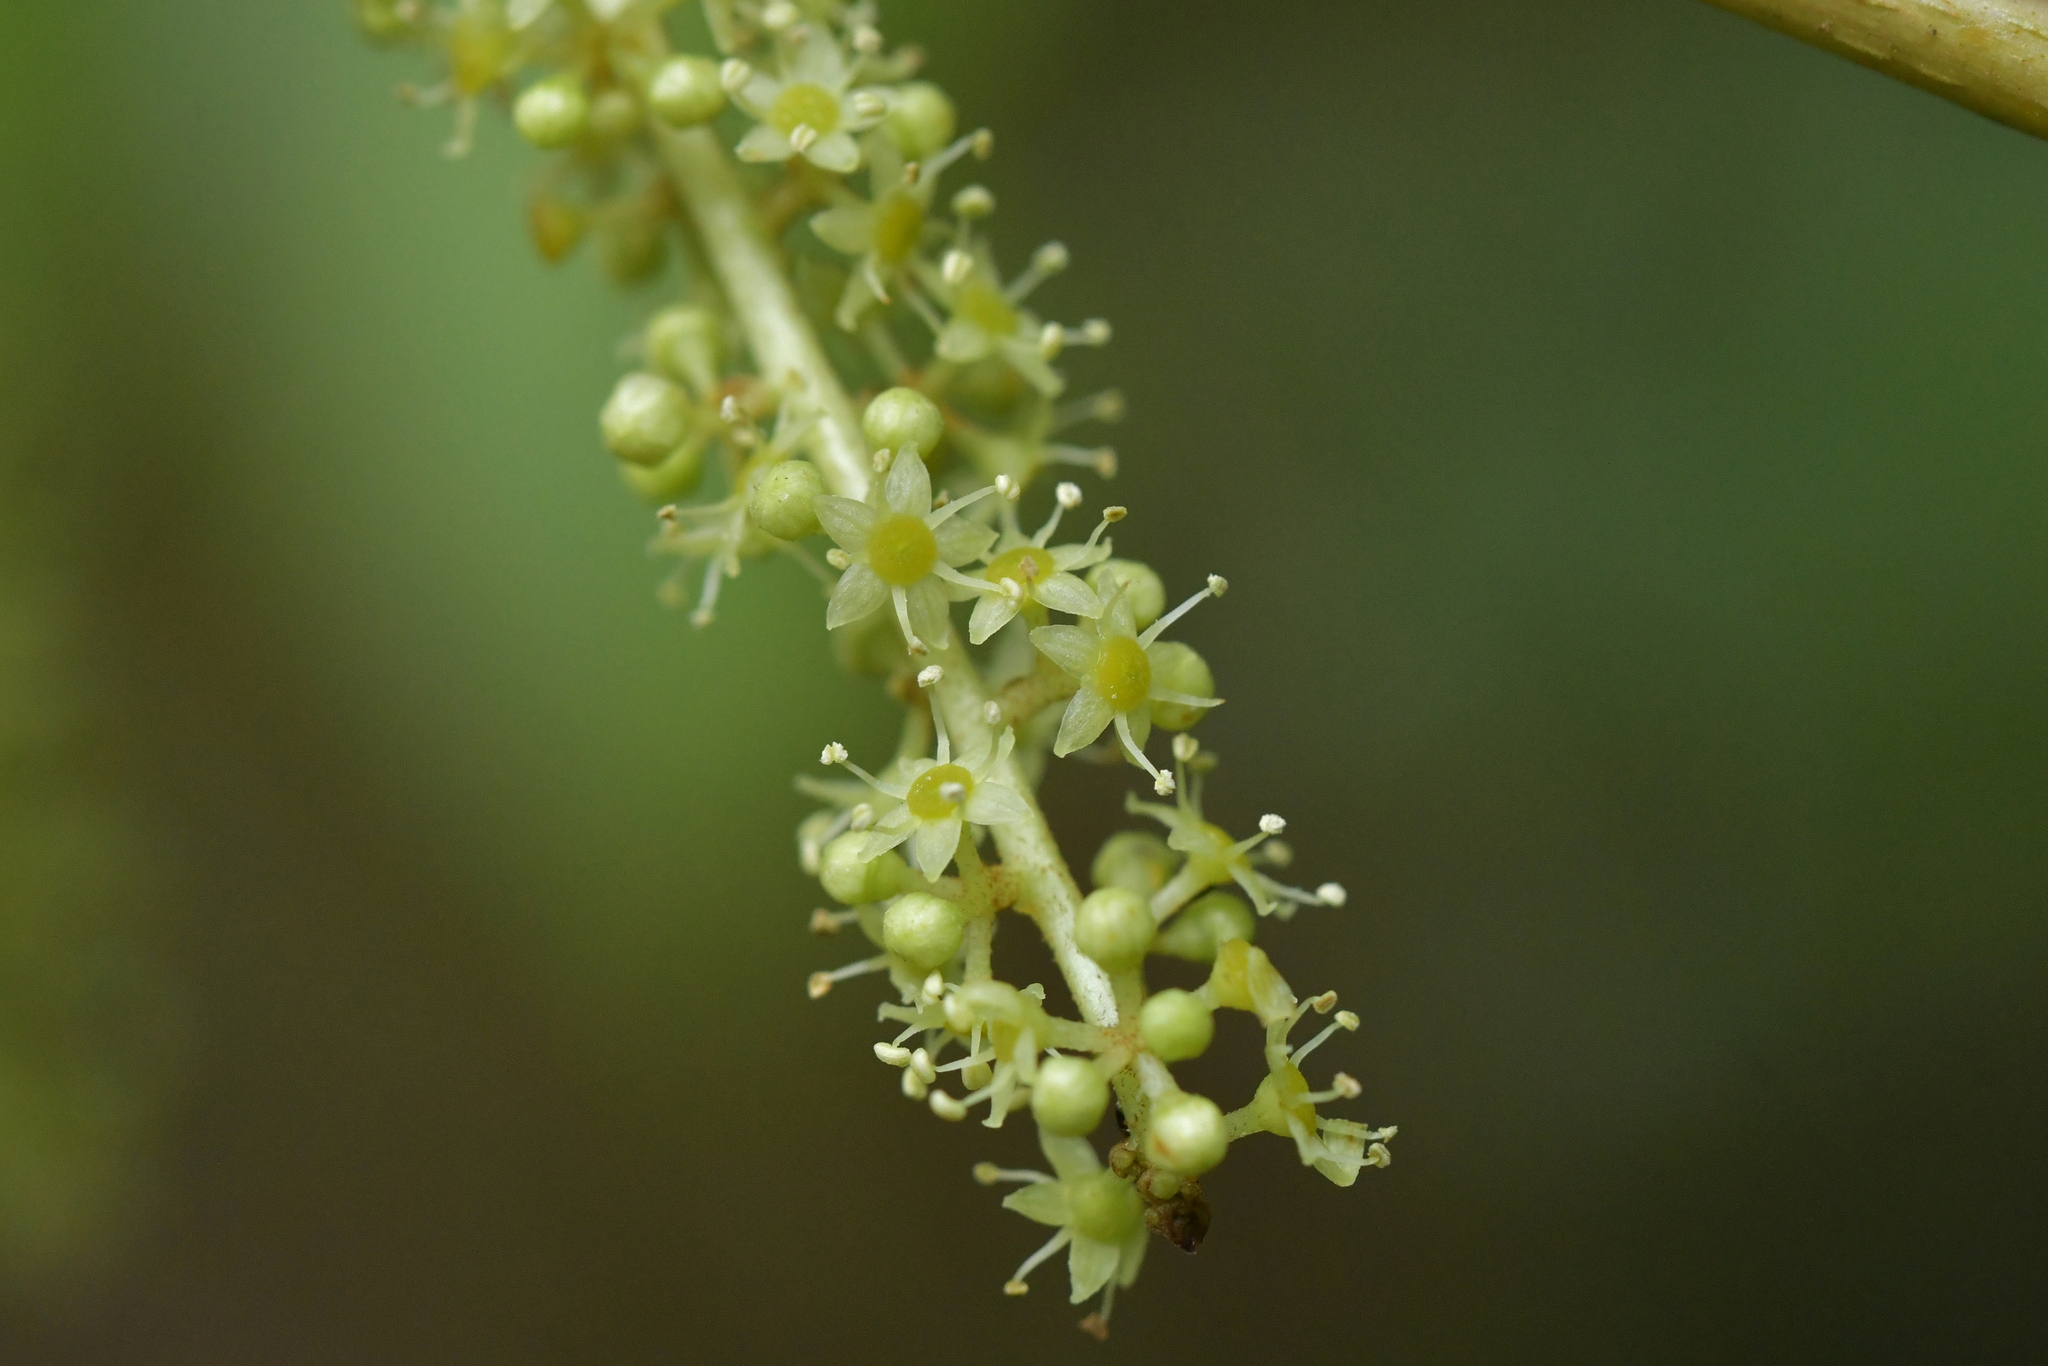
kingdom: Plantae
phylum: Tracheophyta
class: Magnoliopsida
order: Apiales
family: Araliaceae
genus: Schefflera
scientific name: Schefflera digitata
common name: Pate
